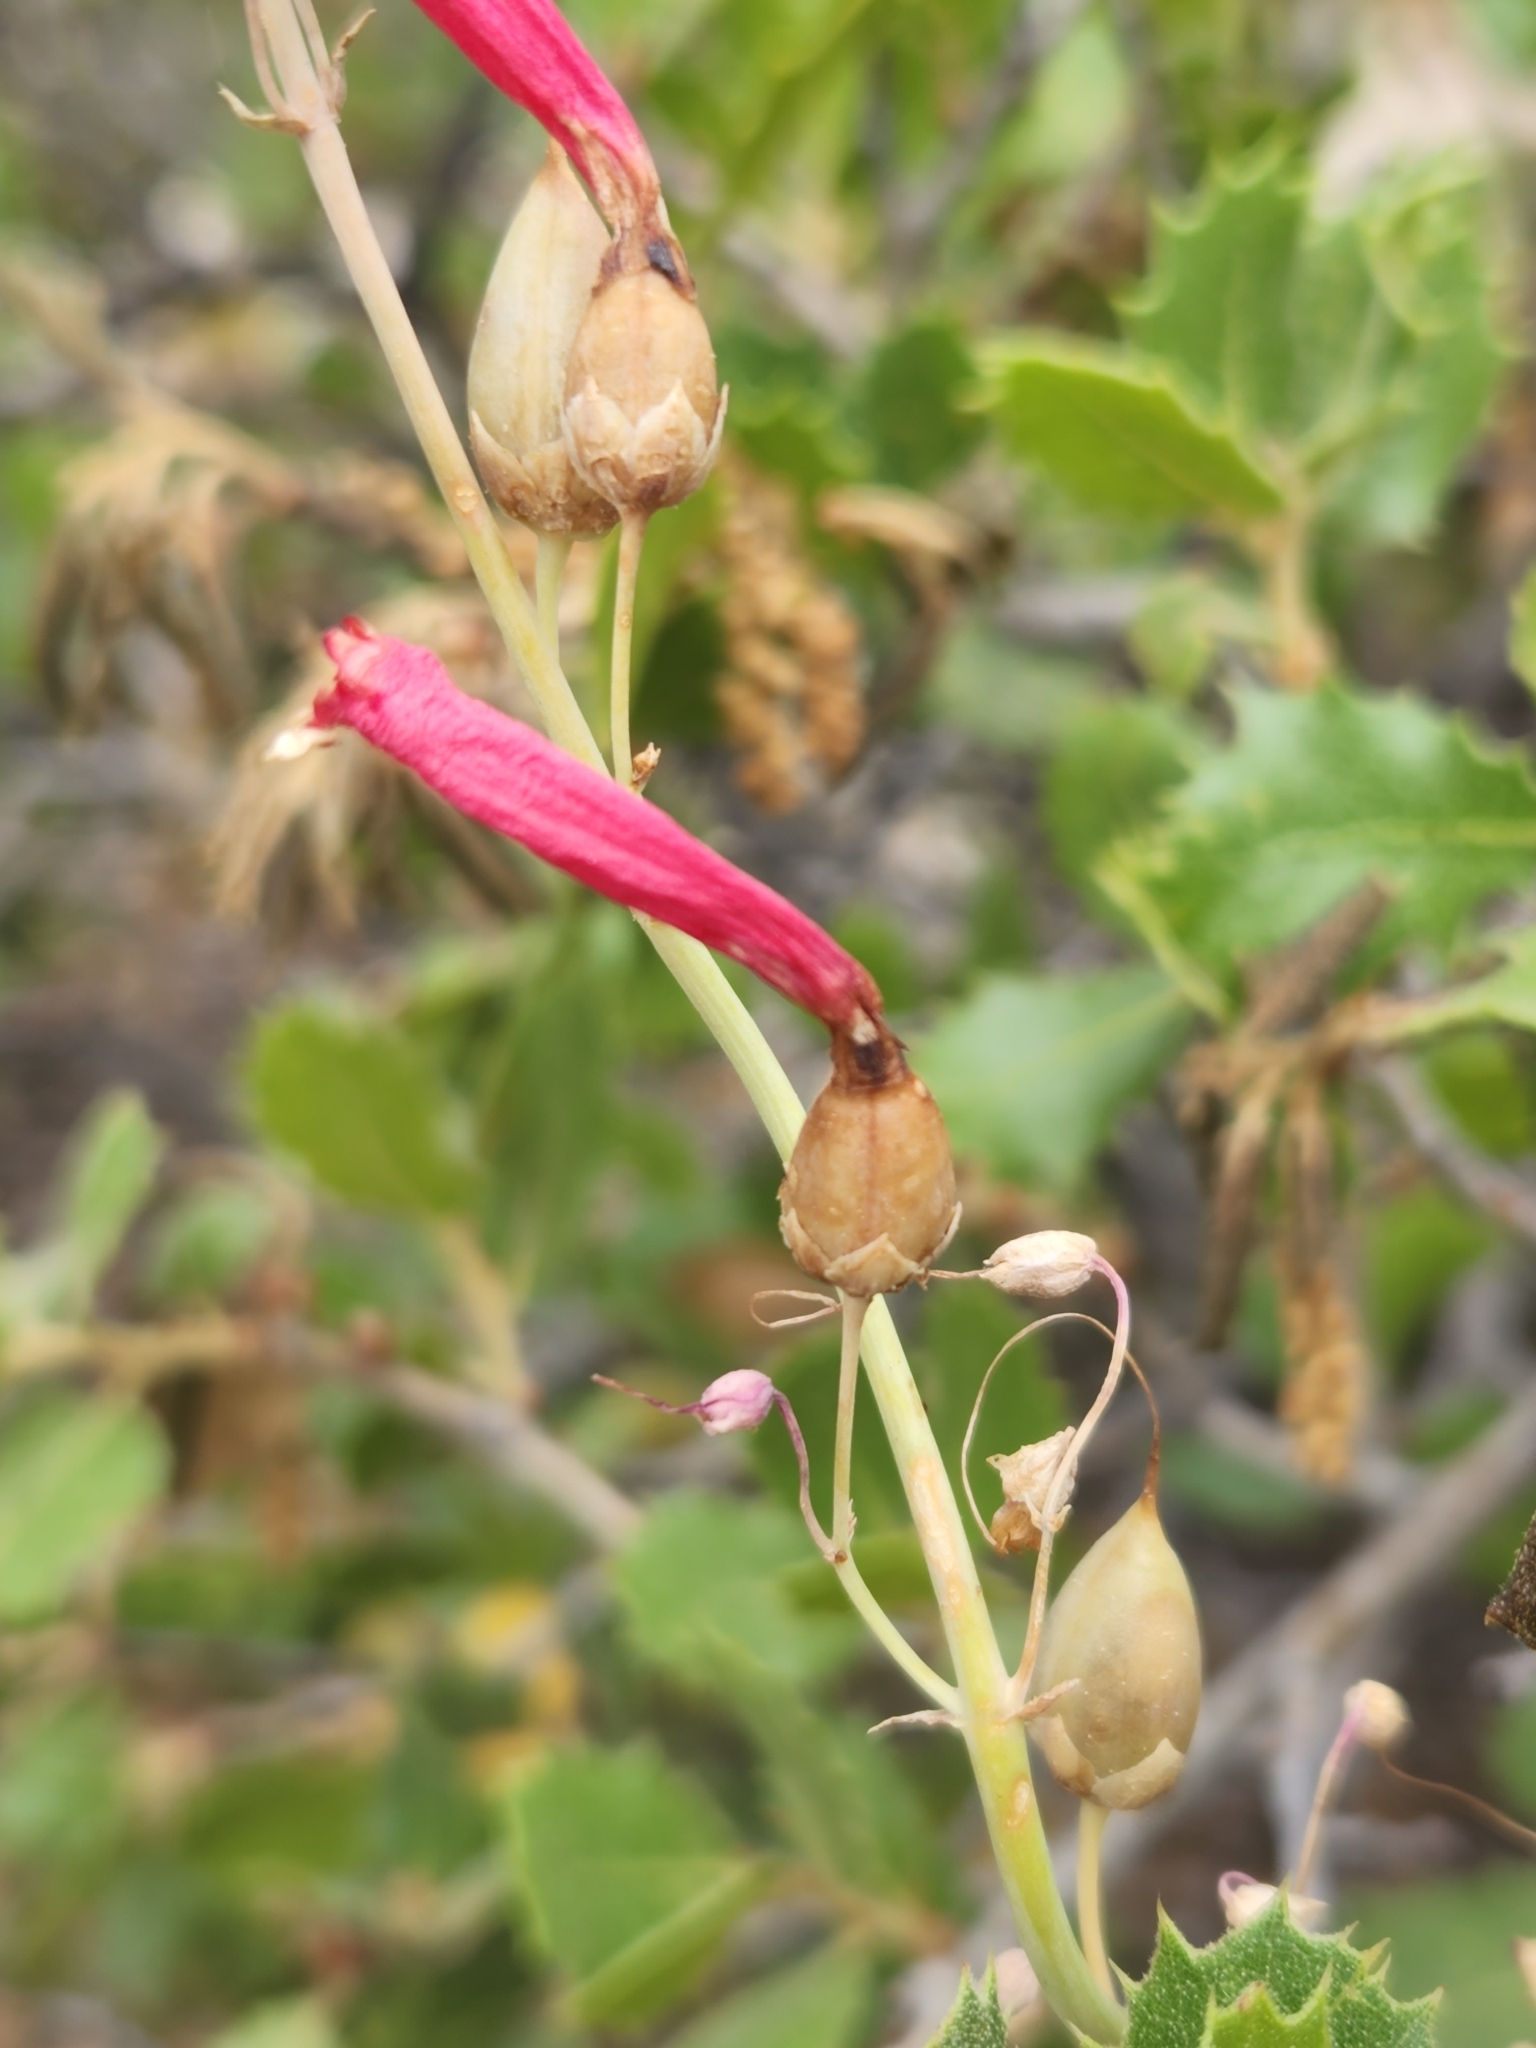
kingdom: Plantae
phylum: Tracheophyta
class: Magnoliopsida
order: Lamiales
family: Plantaginaceae
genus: Penstemon
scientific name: Penstemon centranthifolius
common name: Scarlet bugler
